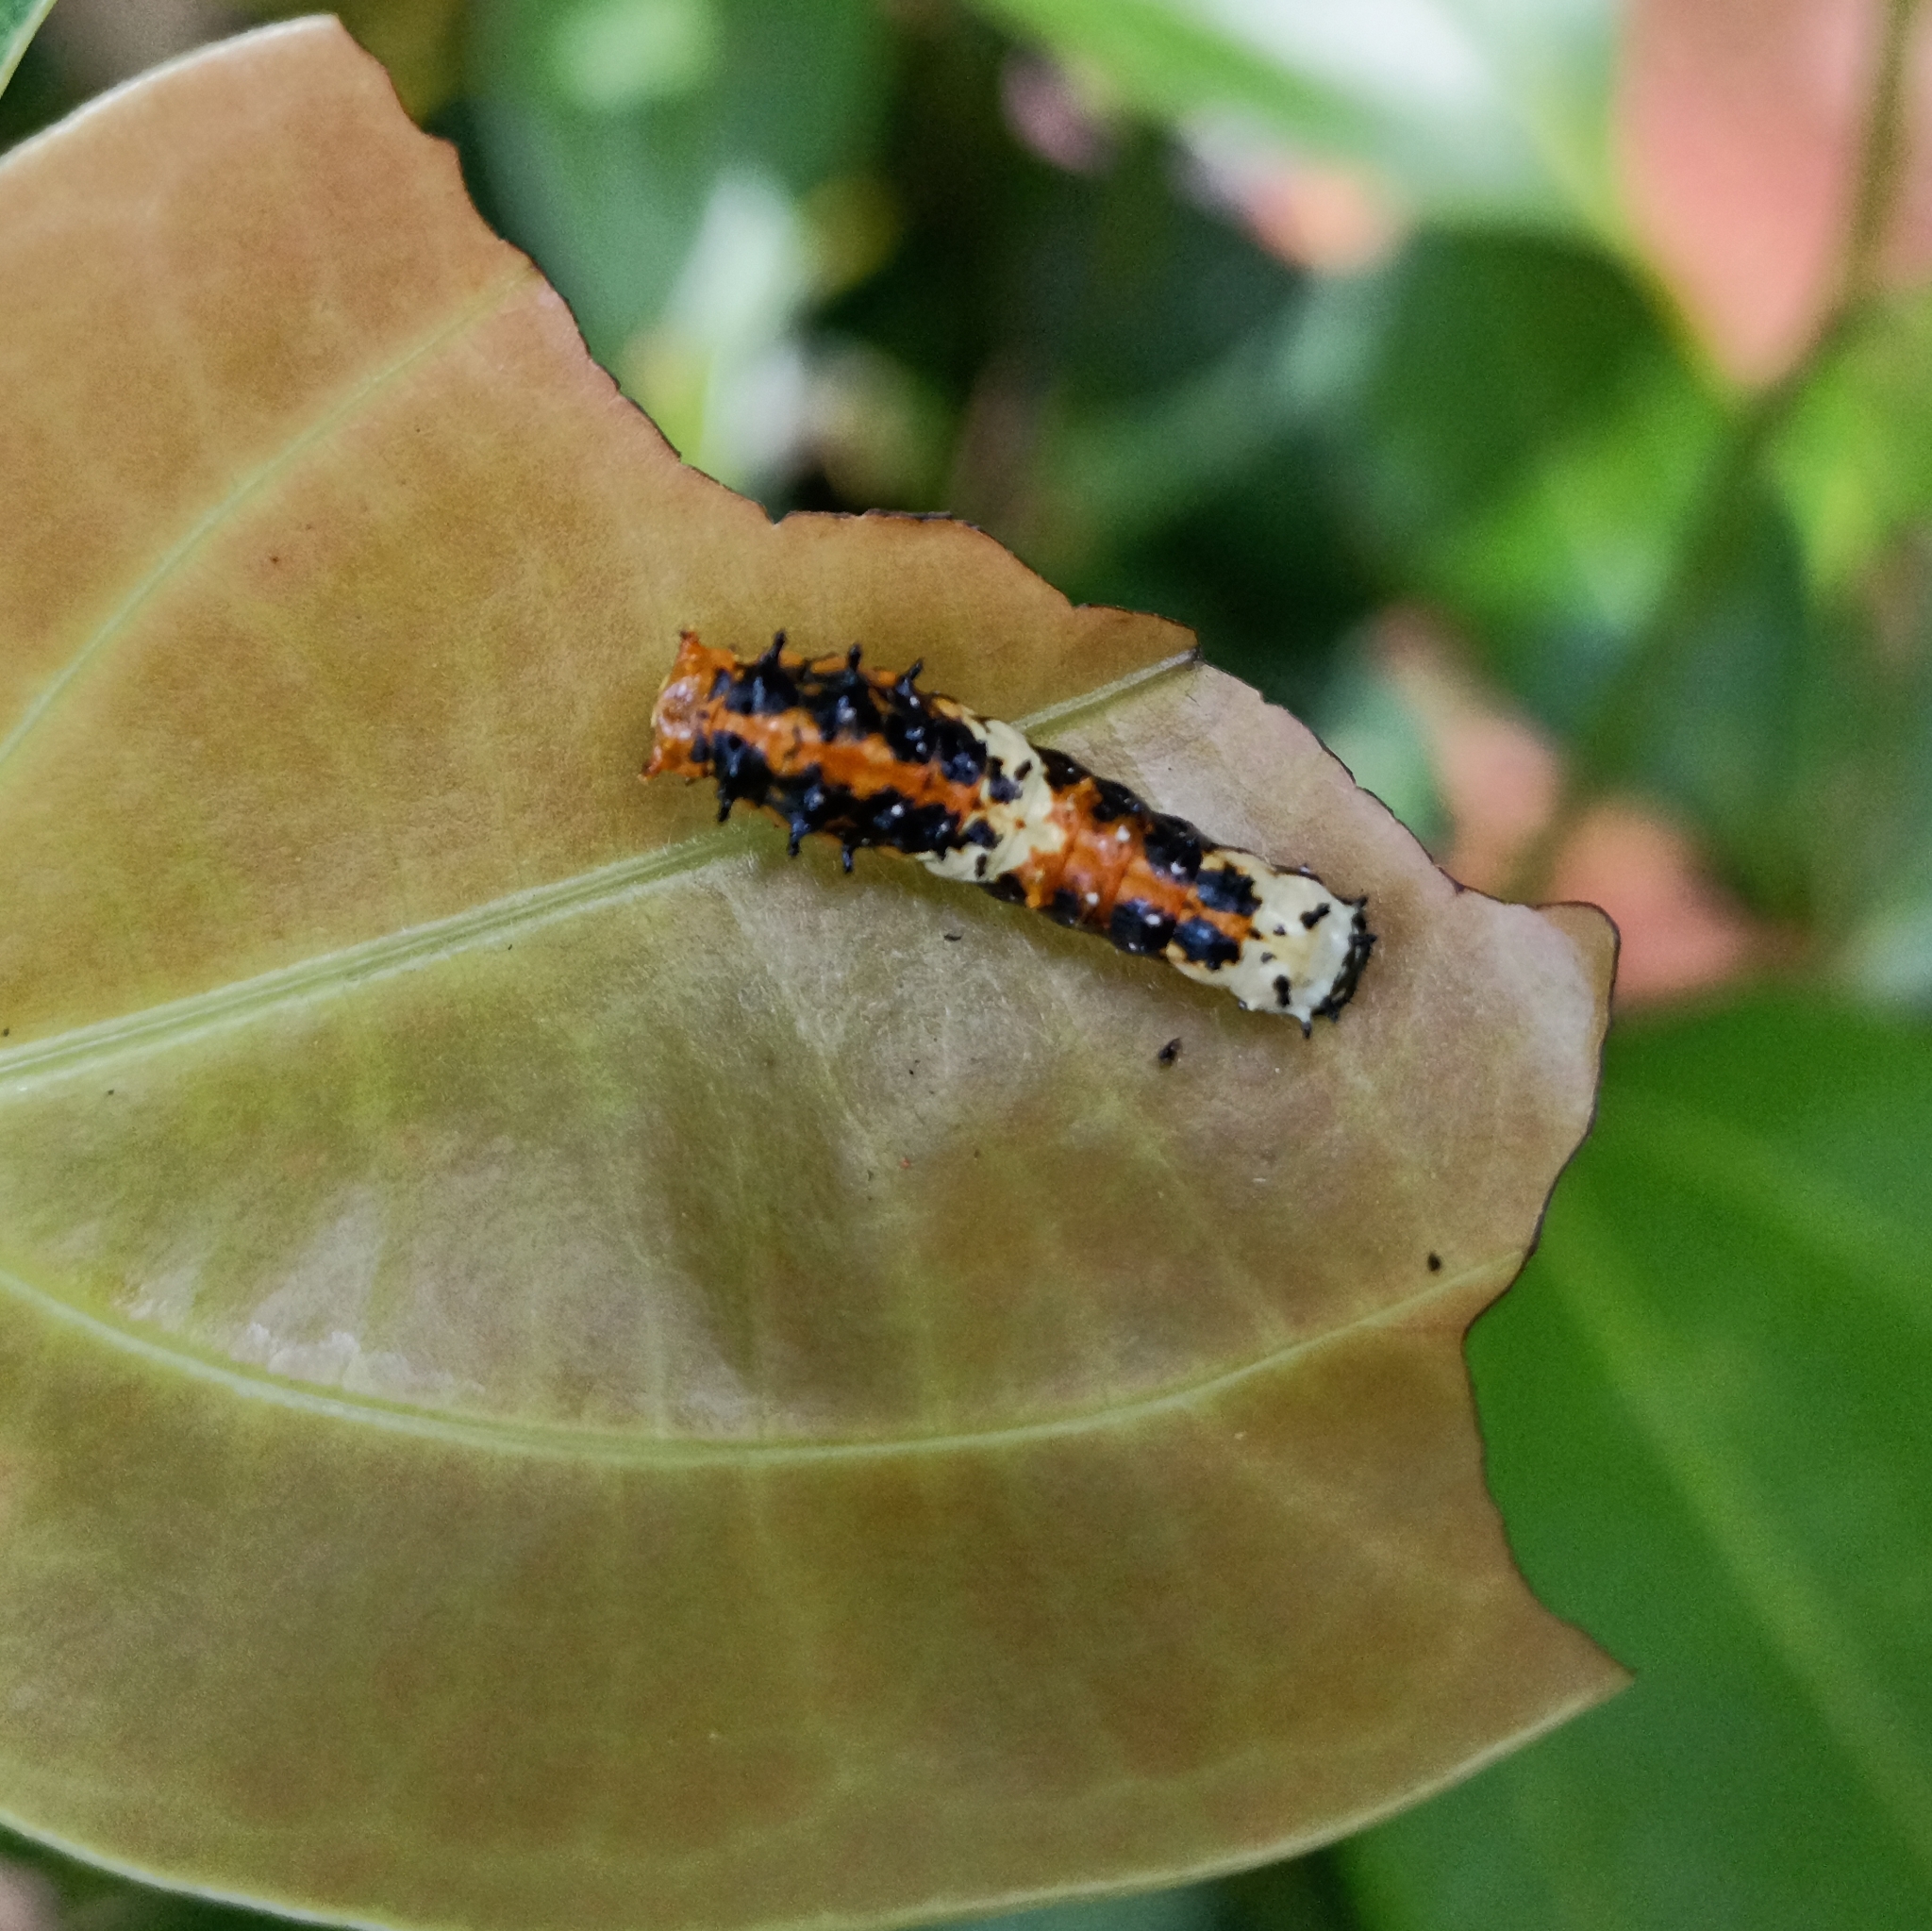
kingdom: Animalia
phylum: Arthropoda
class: Insecta
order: Lepidoptera
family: Papilionidae
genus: Chilasa
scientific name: Chilasa clytia
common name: Common mime
